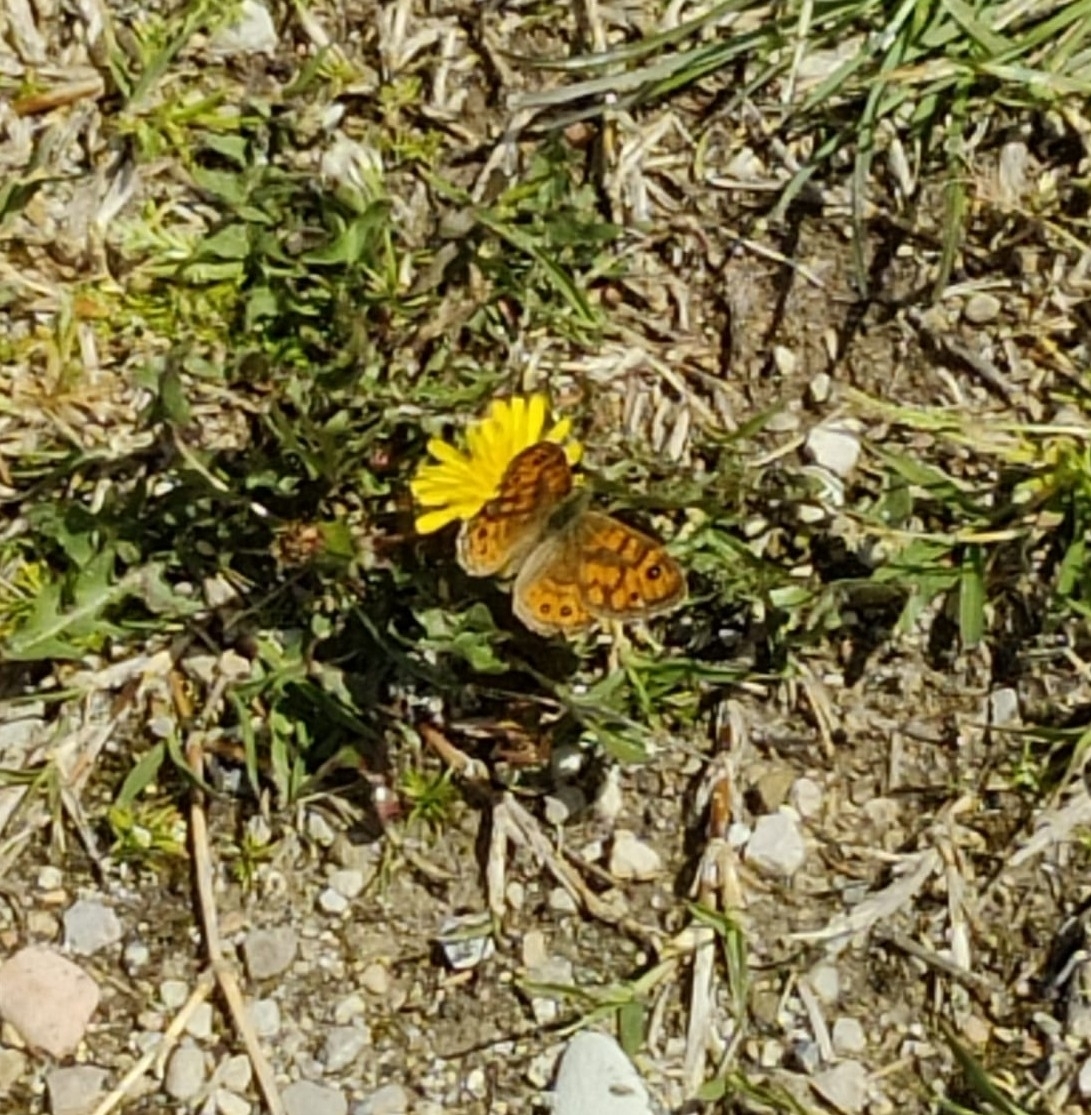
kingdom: Animalia
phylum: Arthropoda
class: Insecta
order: Lepidoptera
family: Nymphalidae
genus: Pararge
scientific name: Pararge Lasiommata megera
